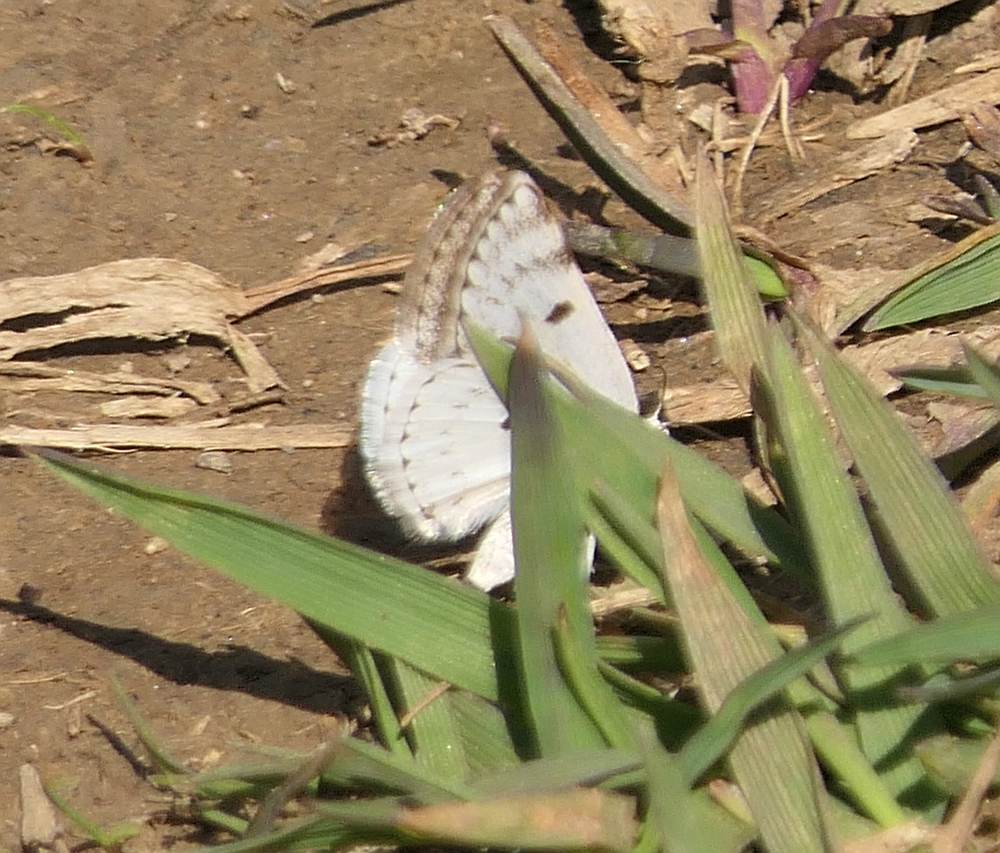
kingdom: Animalia
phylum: Arthropoda
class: Insecta
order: Lepidoptera
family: Geometridae
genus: Lomographa
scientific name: Lomographa semiclarata
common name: Bluish spring moth
